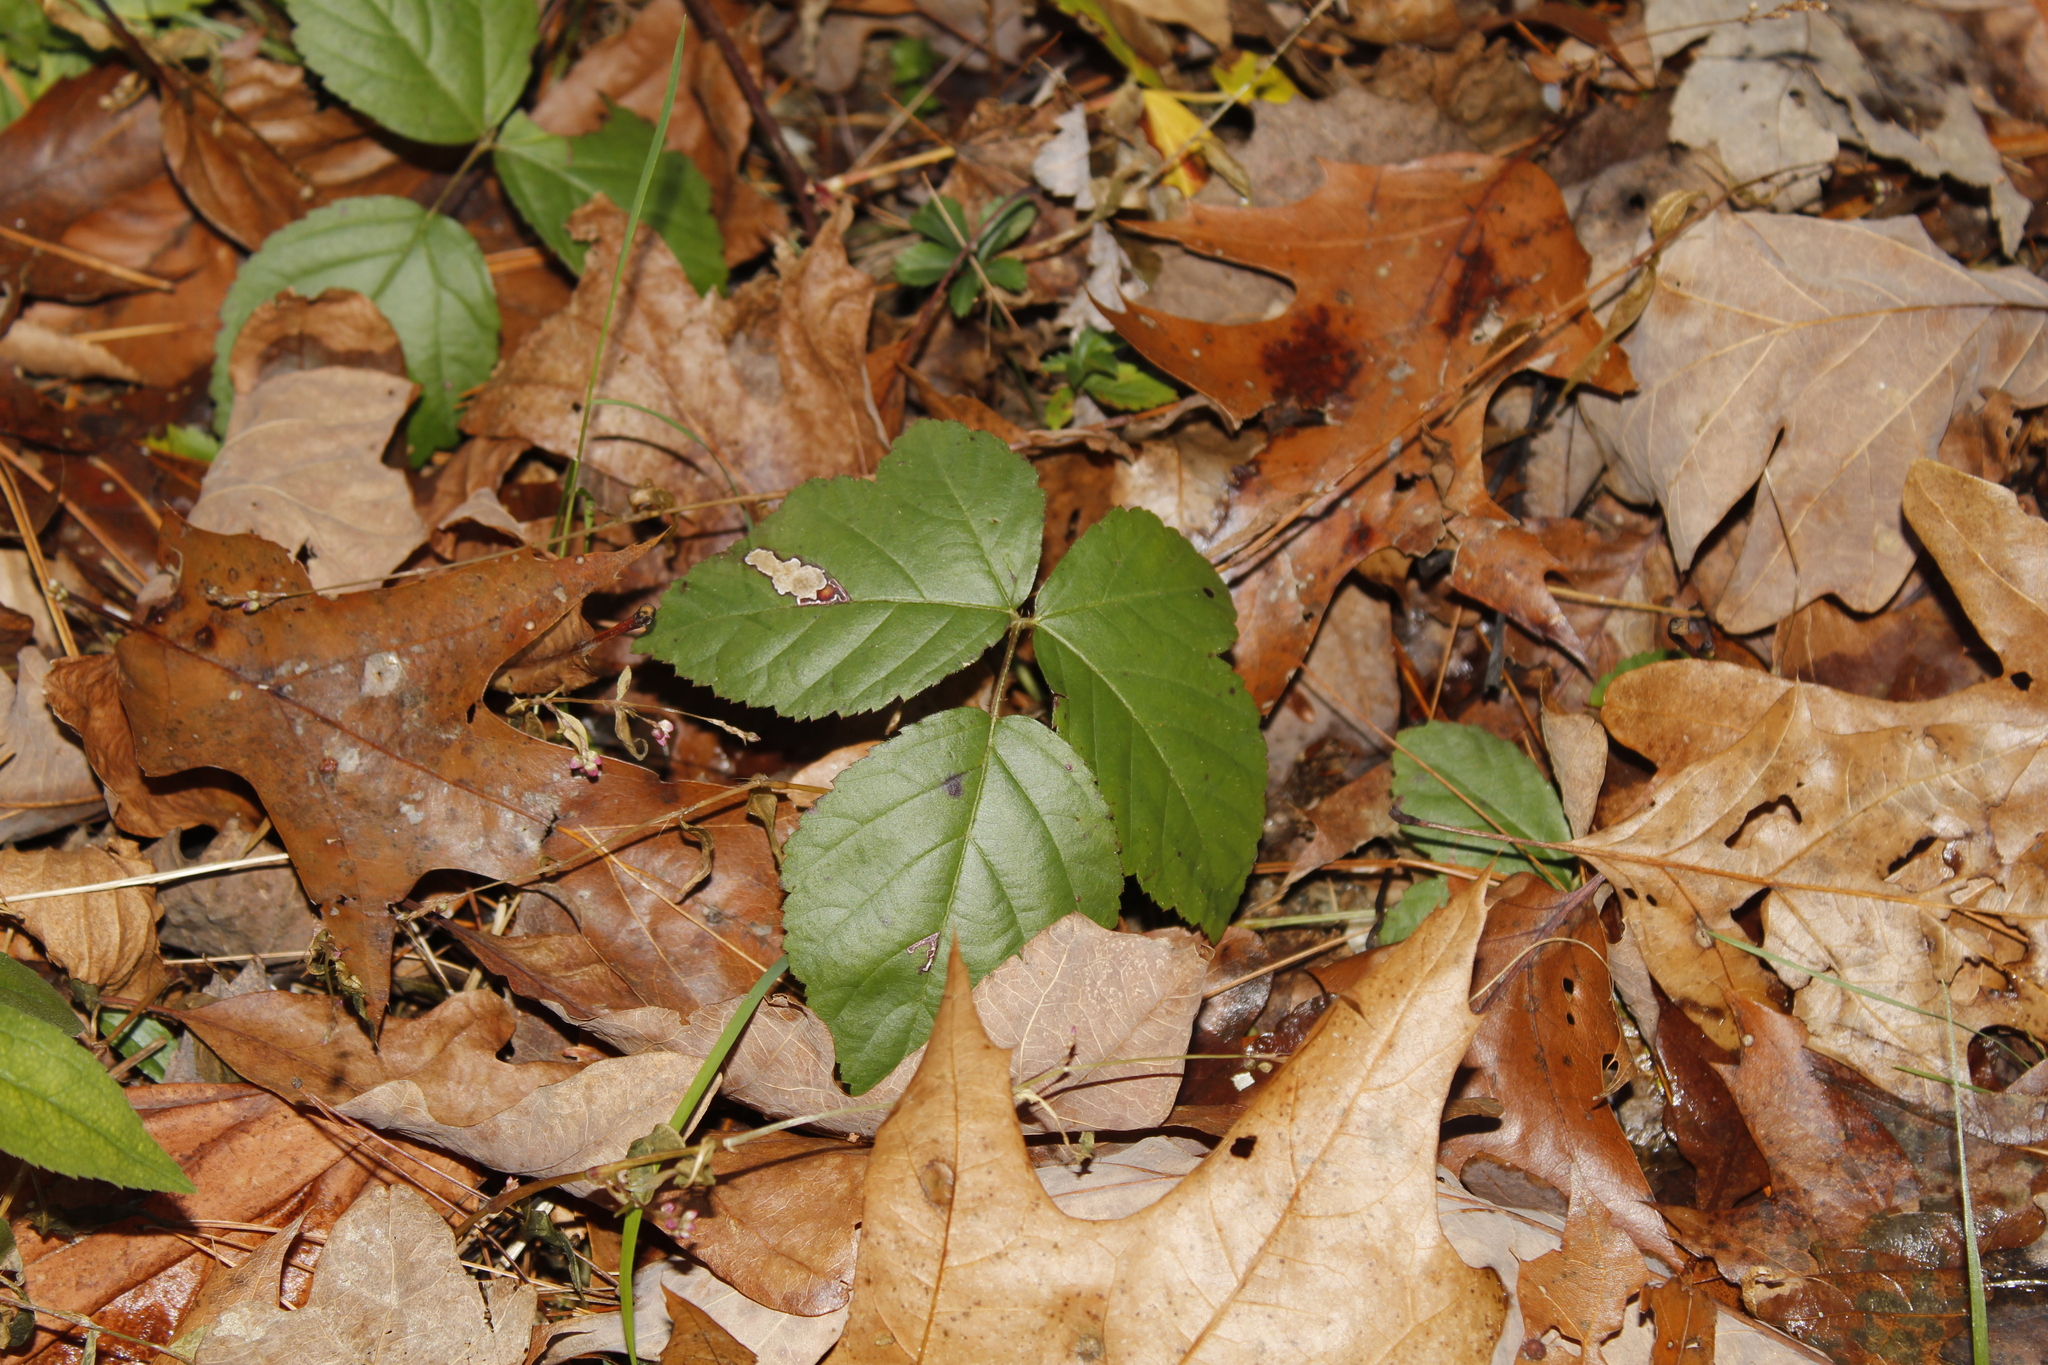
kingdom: Animalia
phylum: Arthropoda
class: Insecta
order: Lepidoptera
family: Nepticulidae
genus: Ectoedemia
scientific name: Ectoedemia rubifoliella
